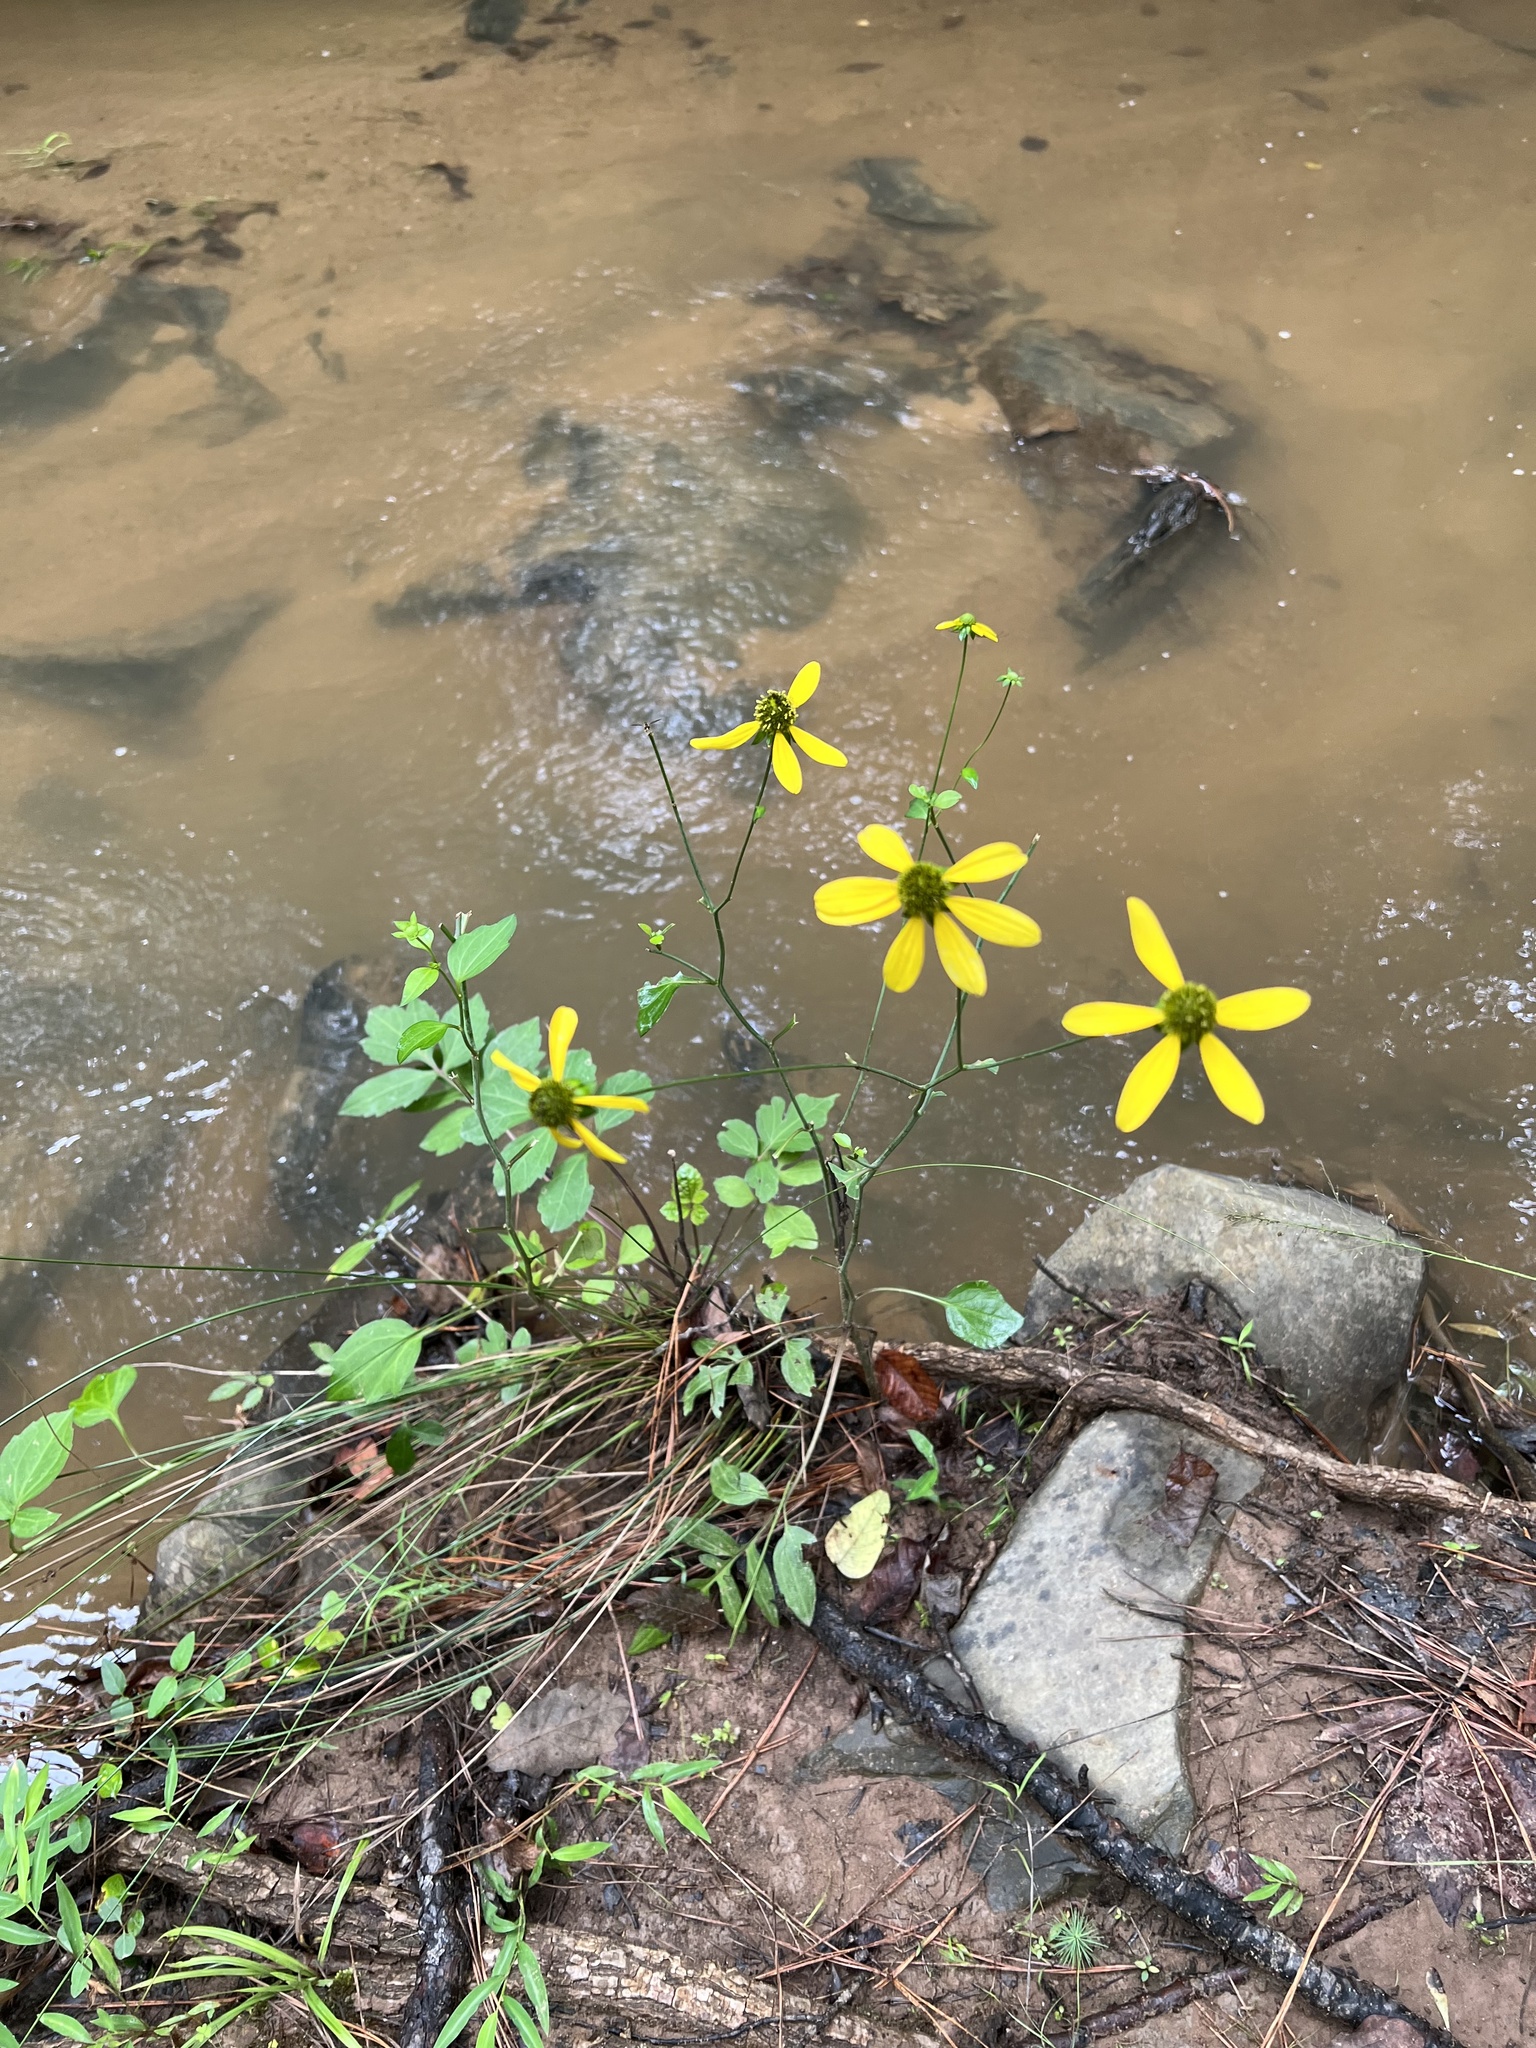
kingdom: Plantae
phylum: Tracheophyta
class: Magnoliopsida
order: Asterales
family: Asteraceae
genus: Rudbeckia
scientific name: Rudbeckia laciniata
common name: Coneflower
